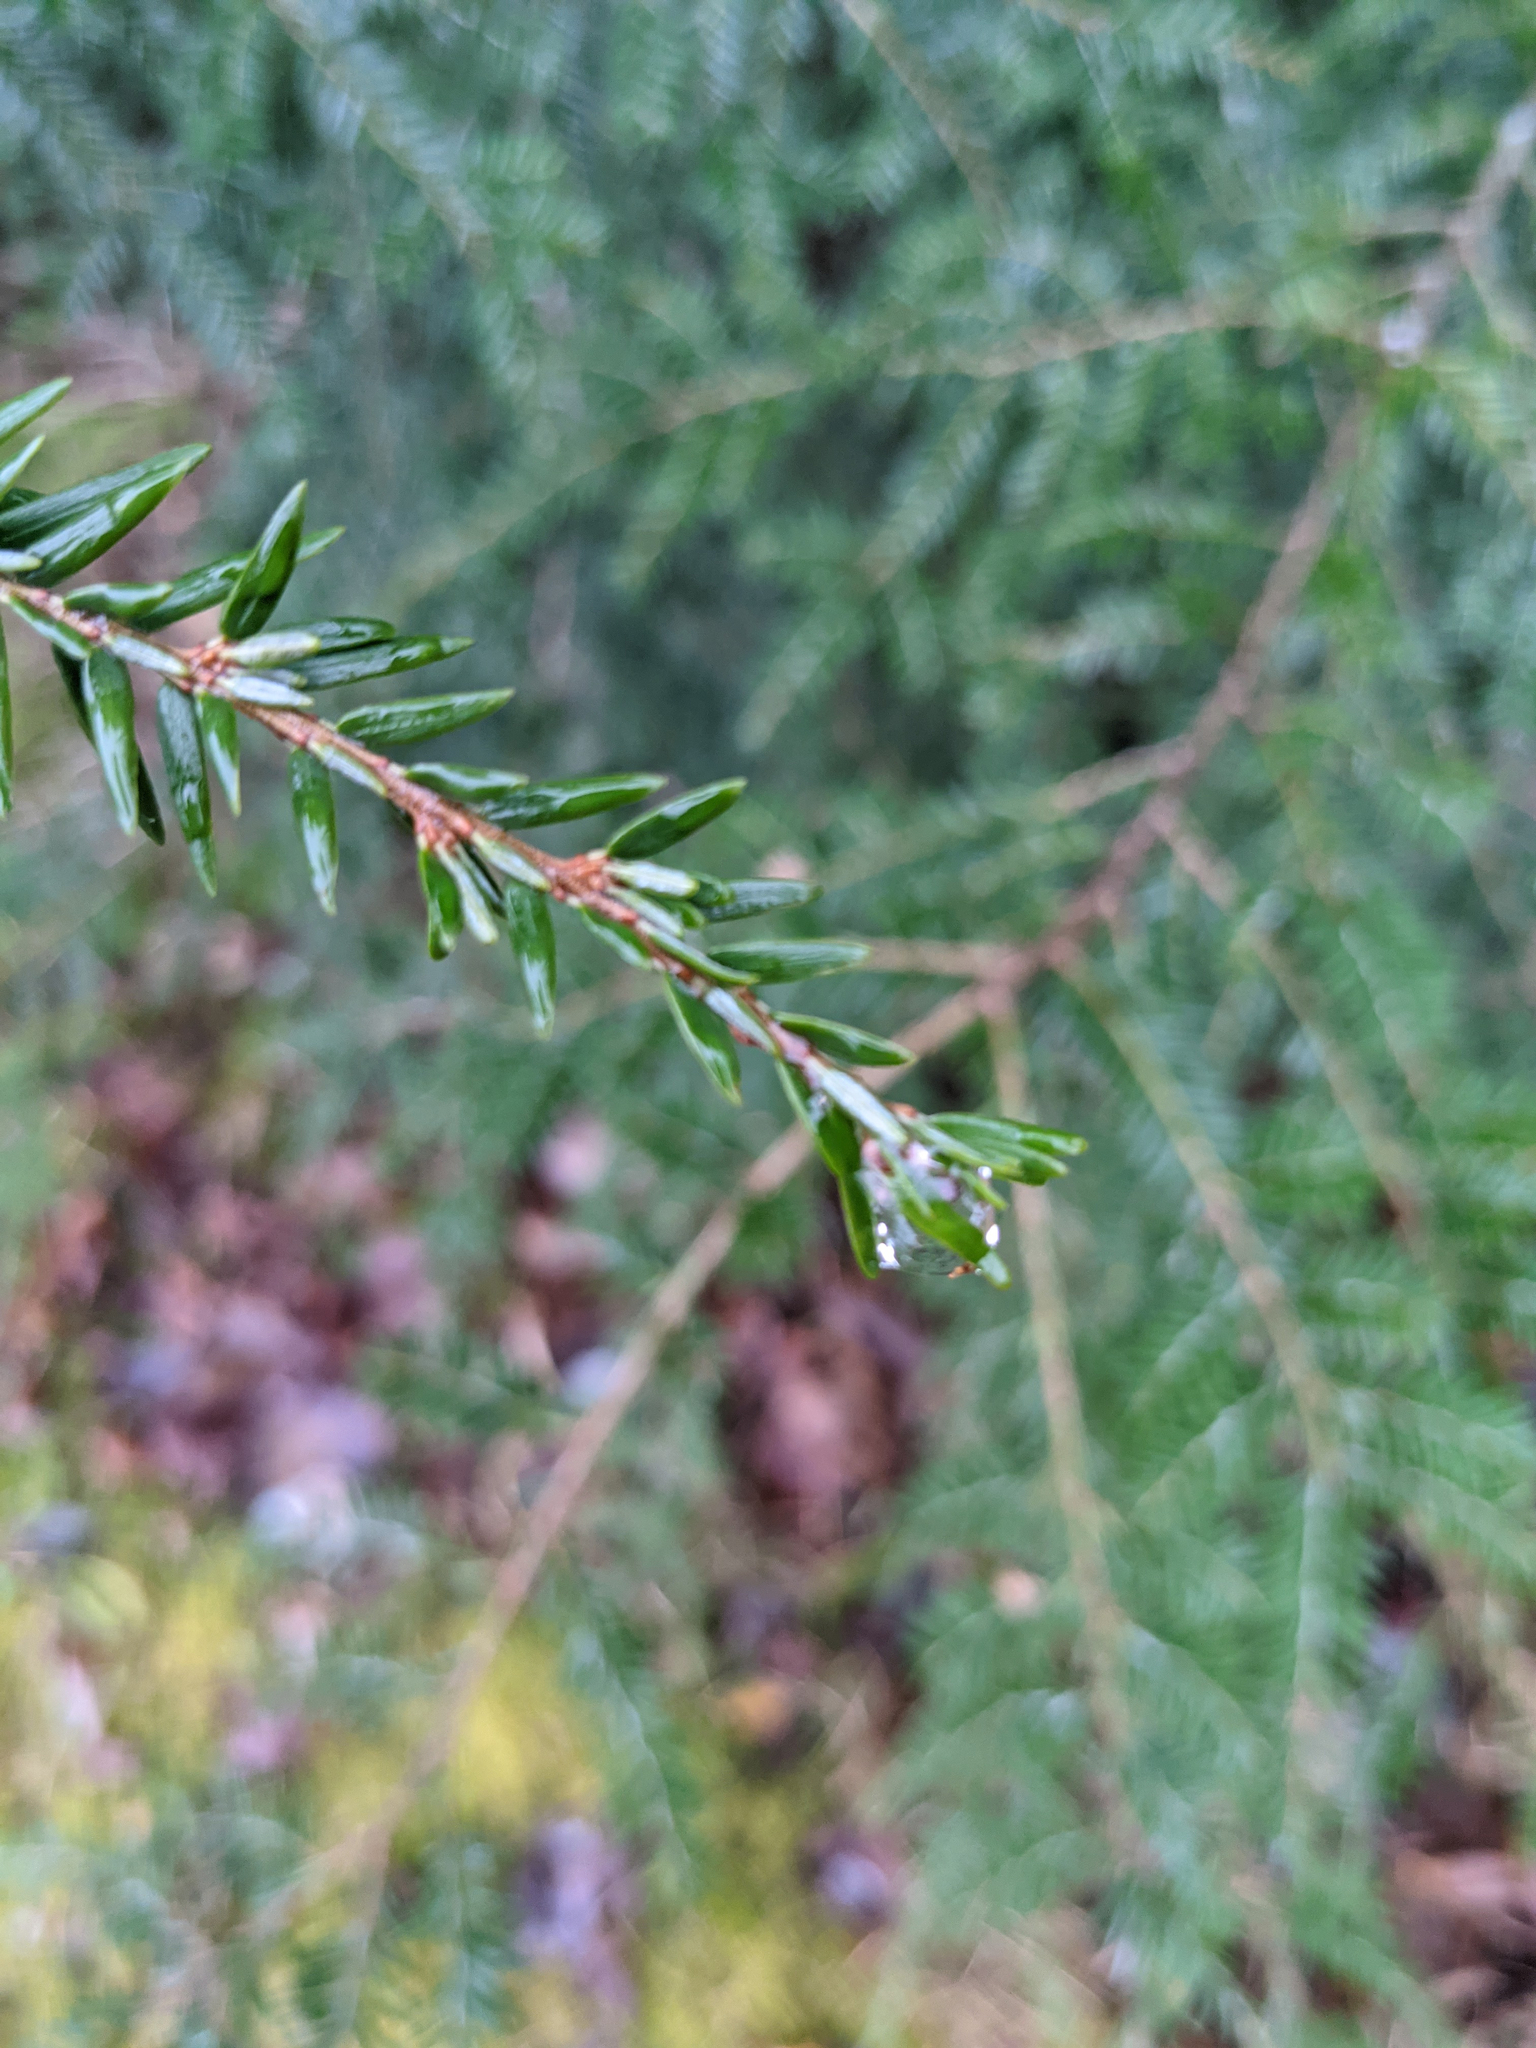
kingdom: Plantae
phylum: Tracheophyta
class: Pinopsida
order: Pinales
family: Pinaceae
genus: Tsuga
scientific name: Tsuga canadensis
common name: Eastern hemlock
